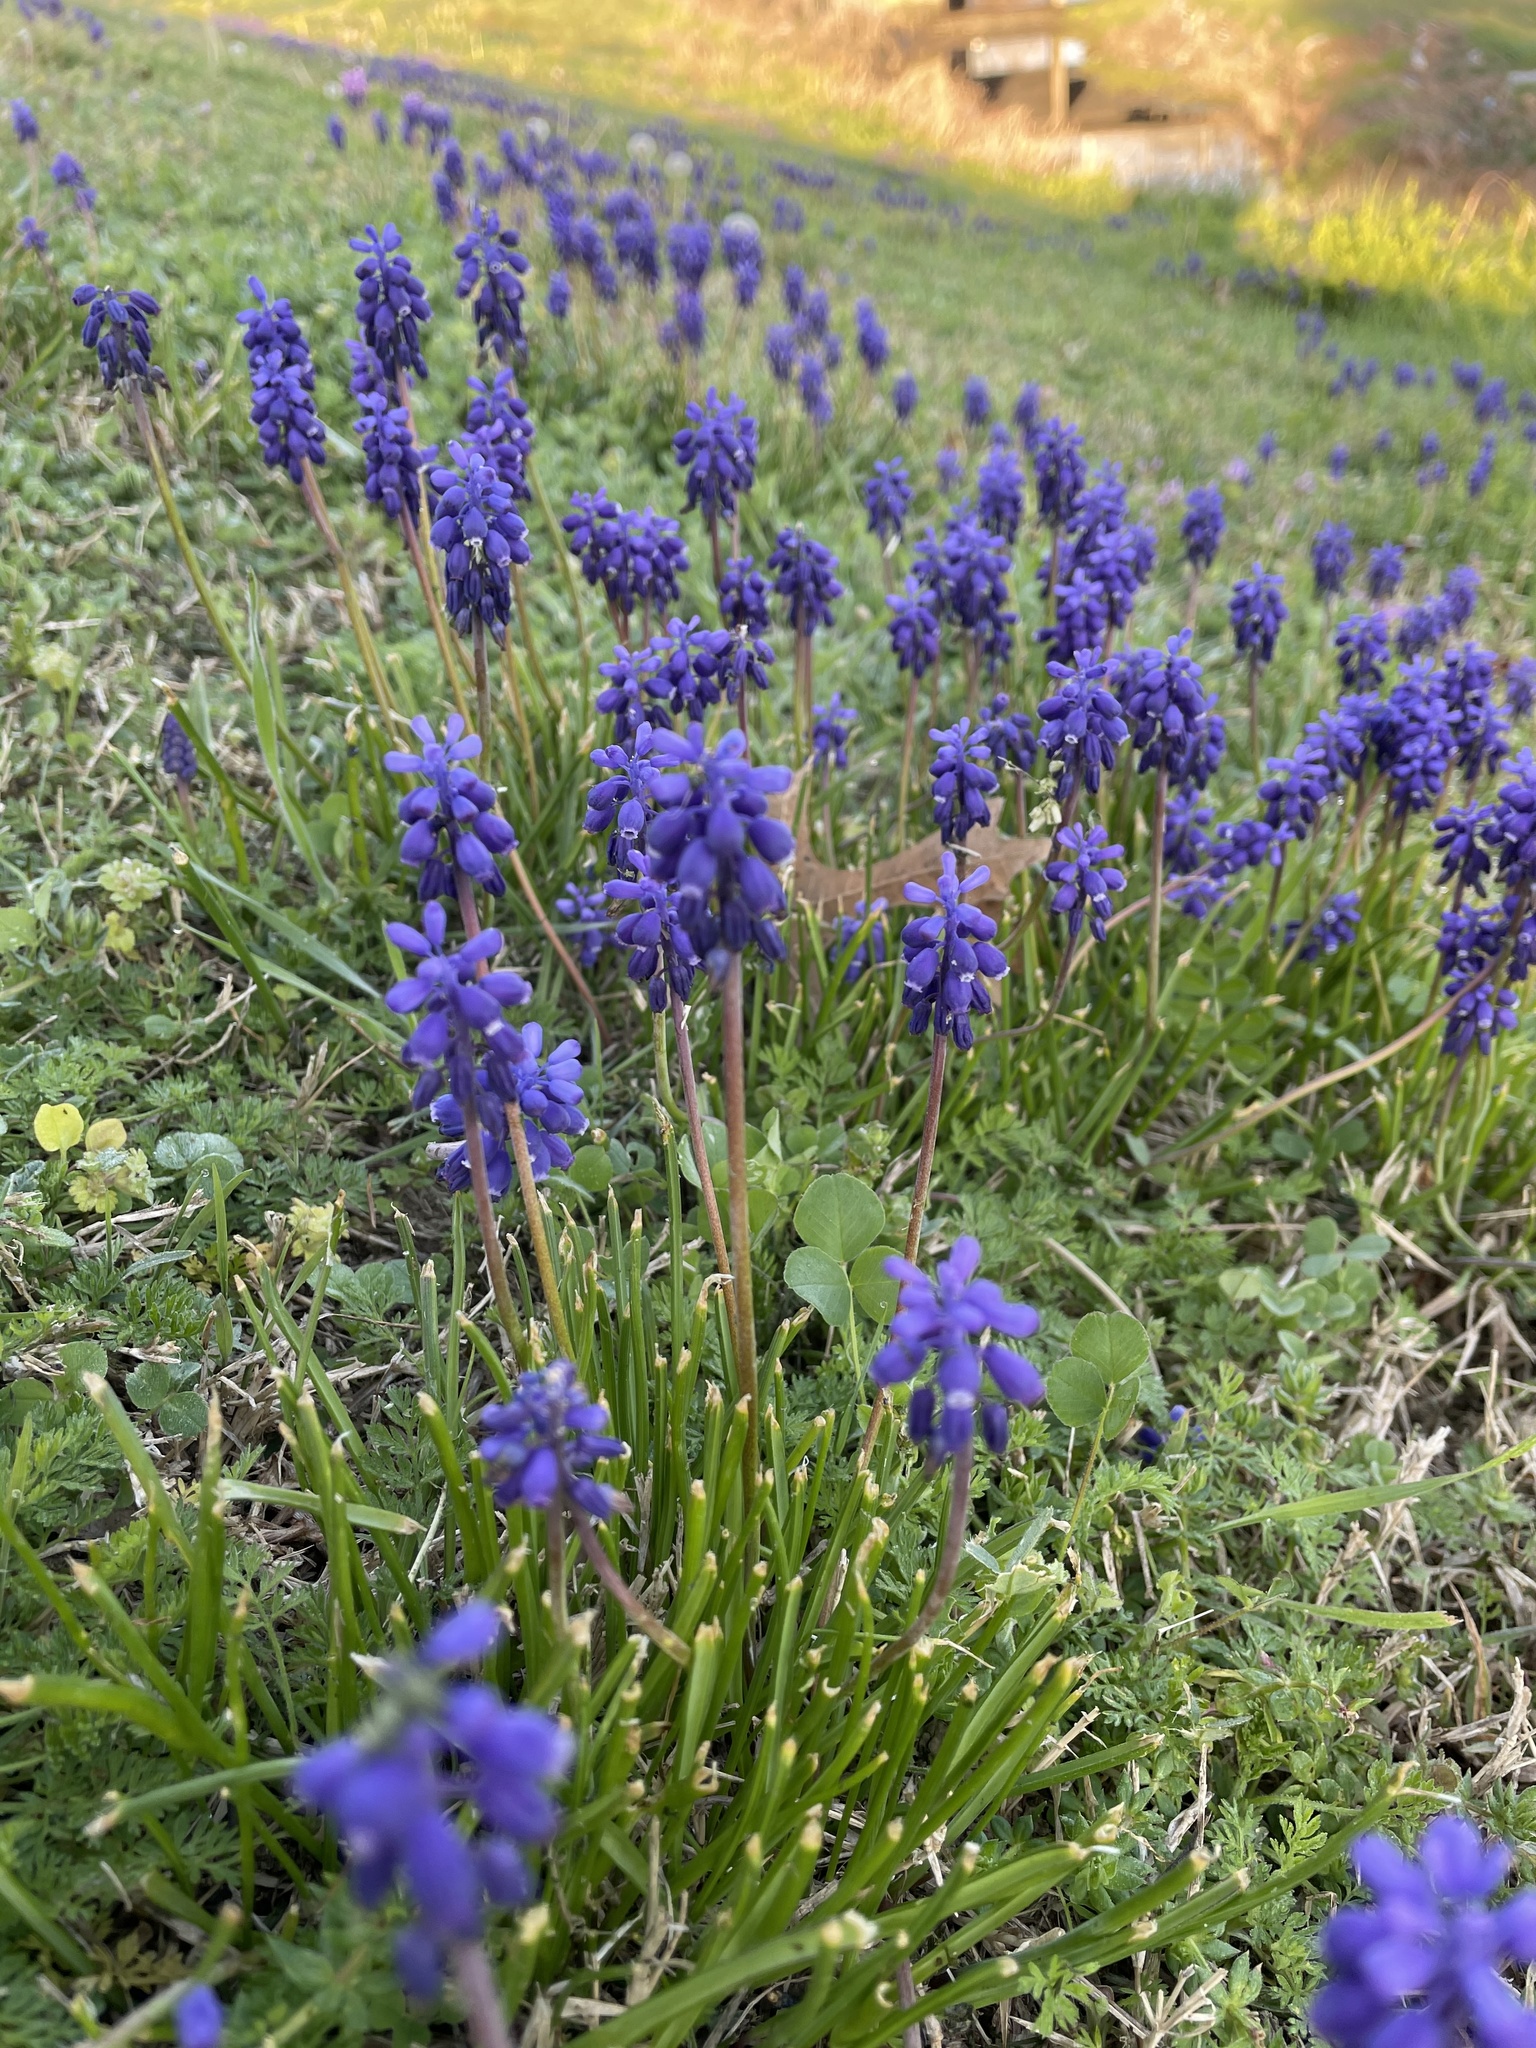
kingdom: Plantae
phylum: Tracheophyta
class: Liliopsida
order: Asparagales
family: Asparagaceae
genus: Muscari
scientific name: Muscari neglectum
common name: Grape-hyacinth
